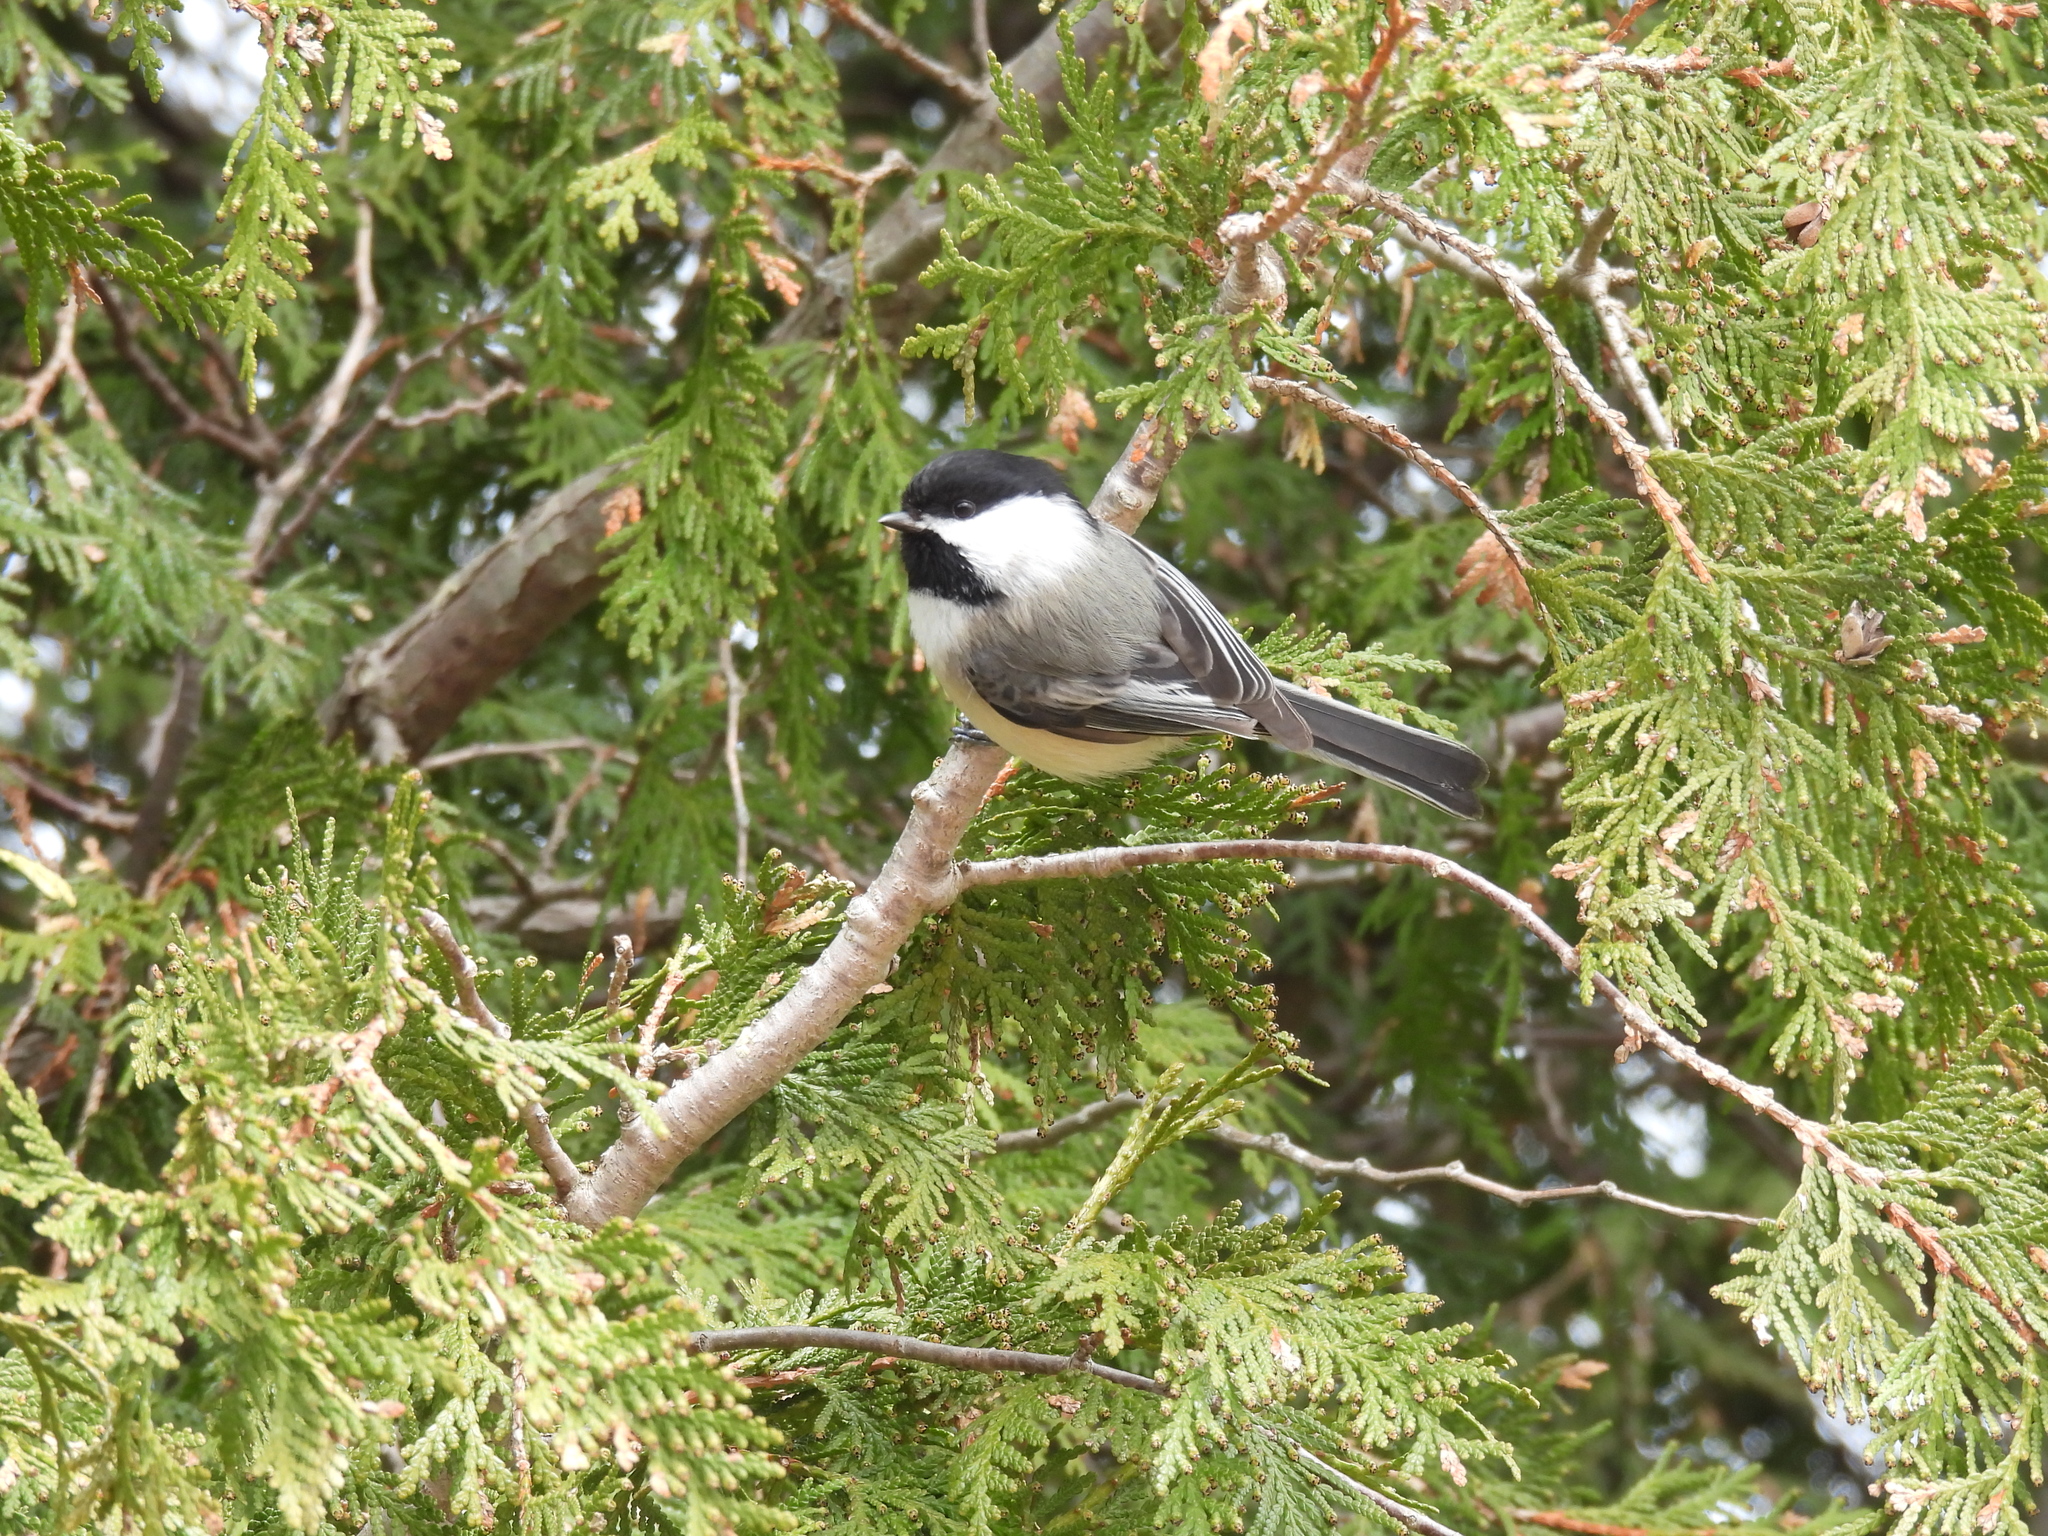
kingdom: Animalia
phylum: Chordata
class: Aves
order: Passeriformes
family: Paridae
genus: Poecile
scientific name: Poecile atricapillus
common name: Black-capped chickadee
